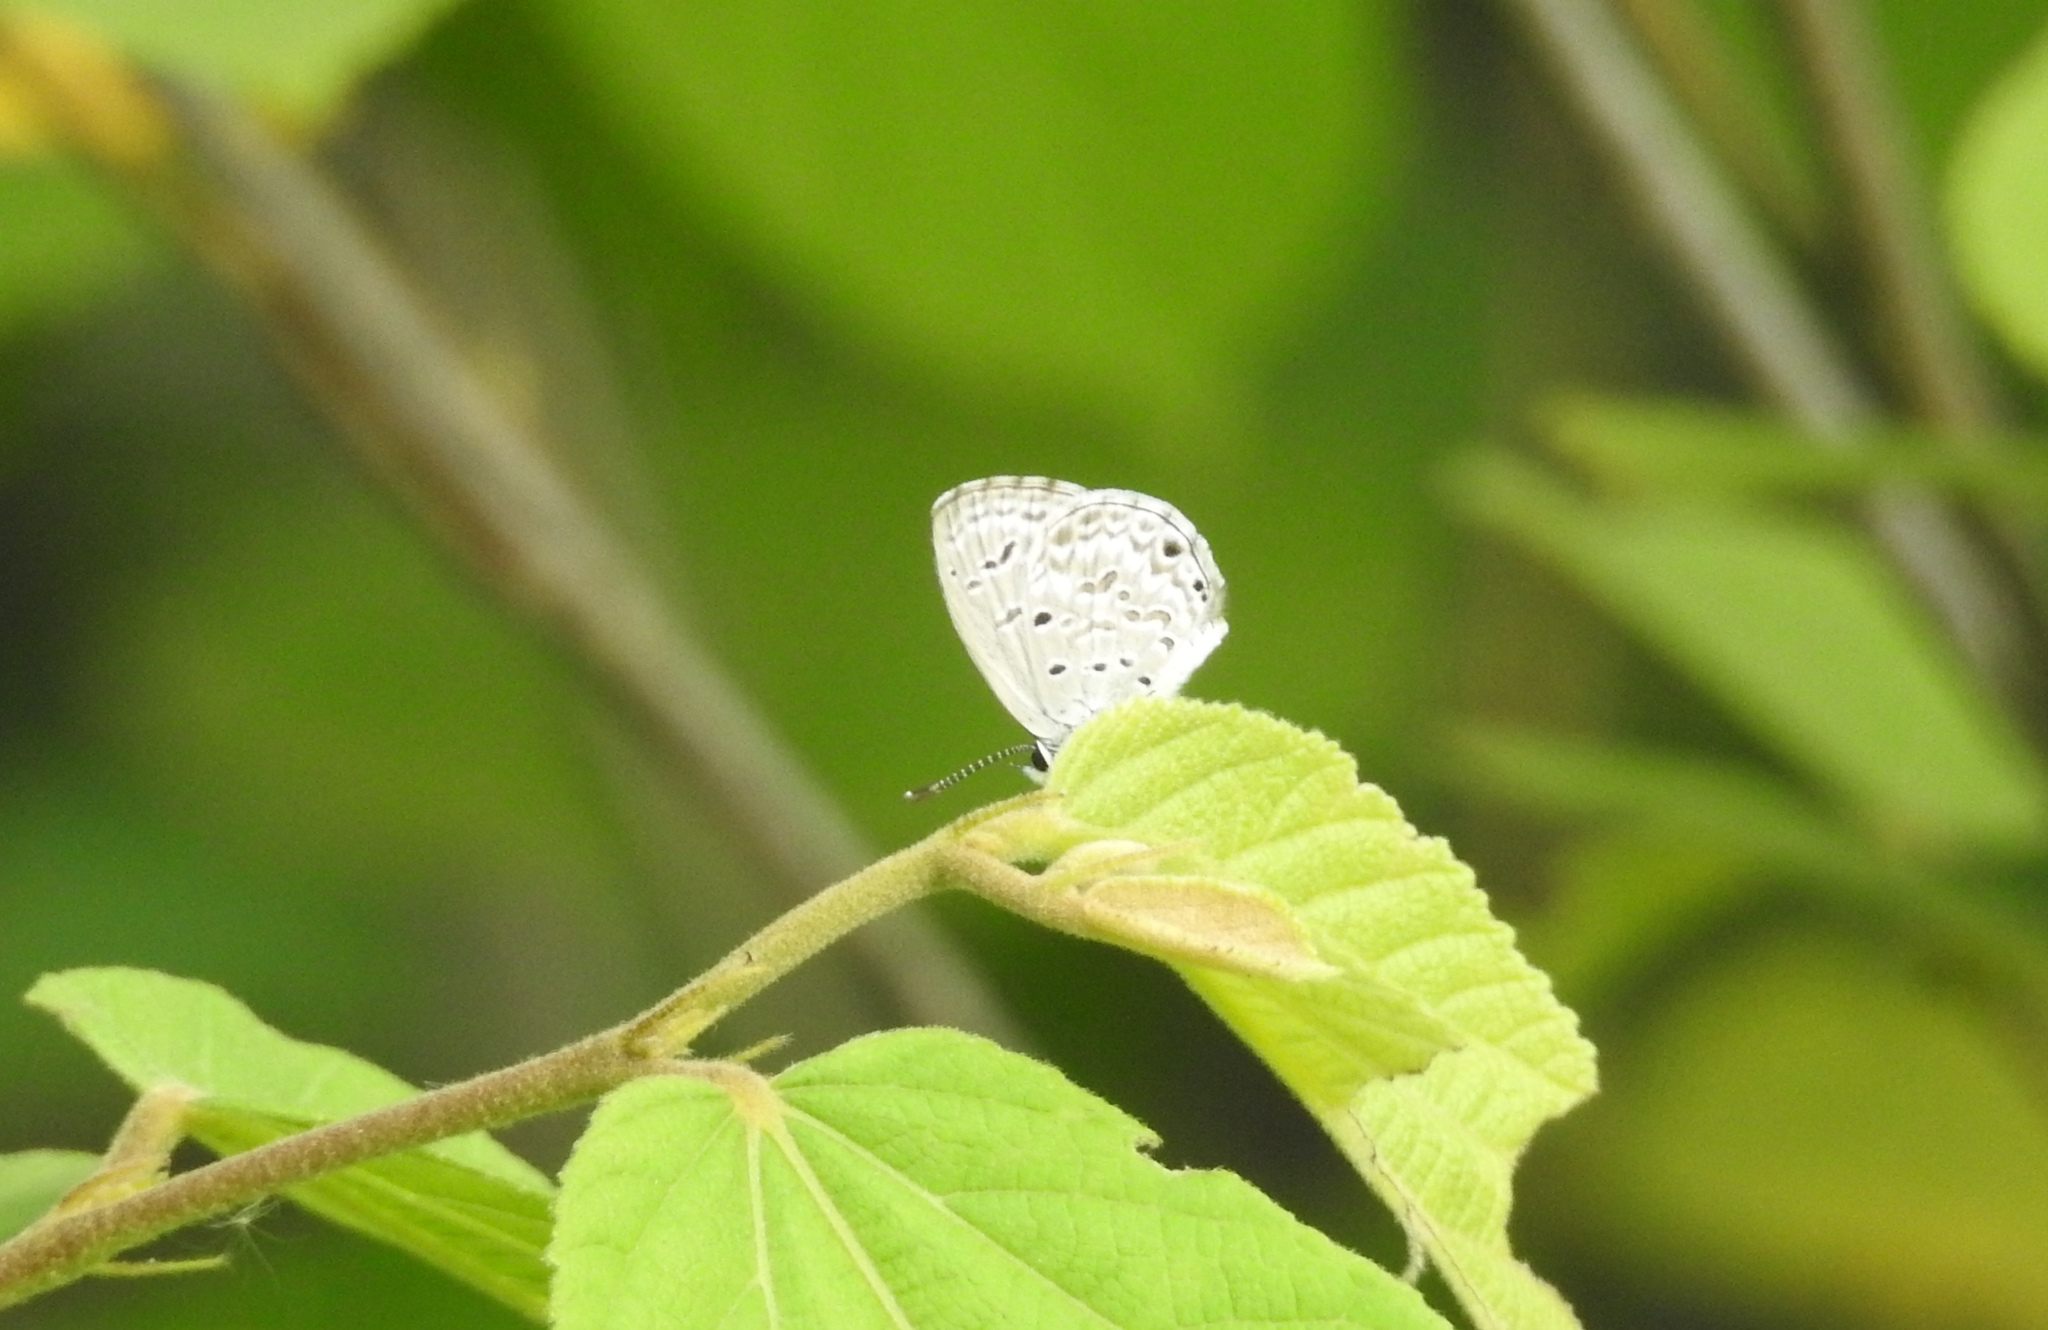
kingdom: Animalia
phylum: Arthropoda
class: Insecta
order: Lepidoptera
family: Lycaenidae
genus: Chilades
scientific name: Chilades laius
